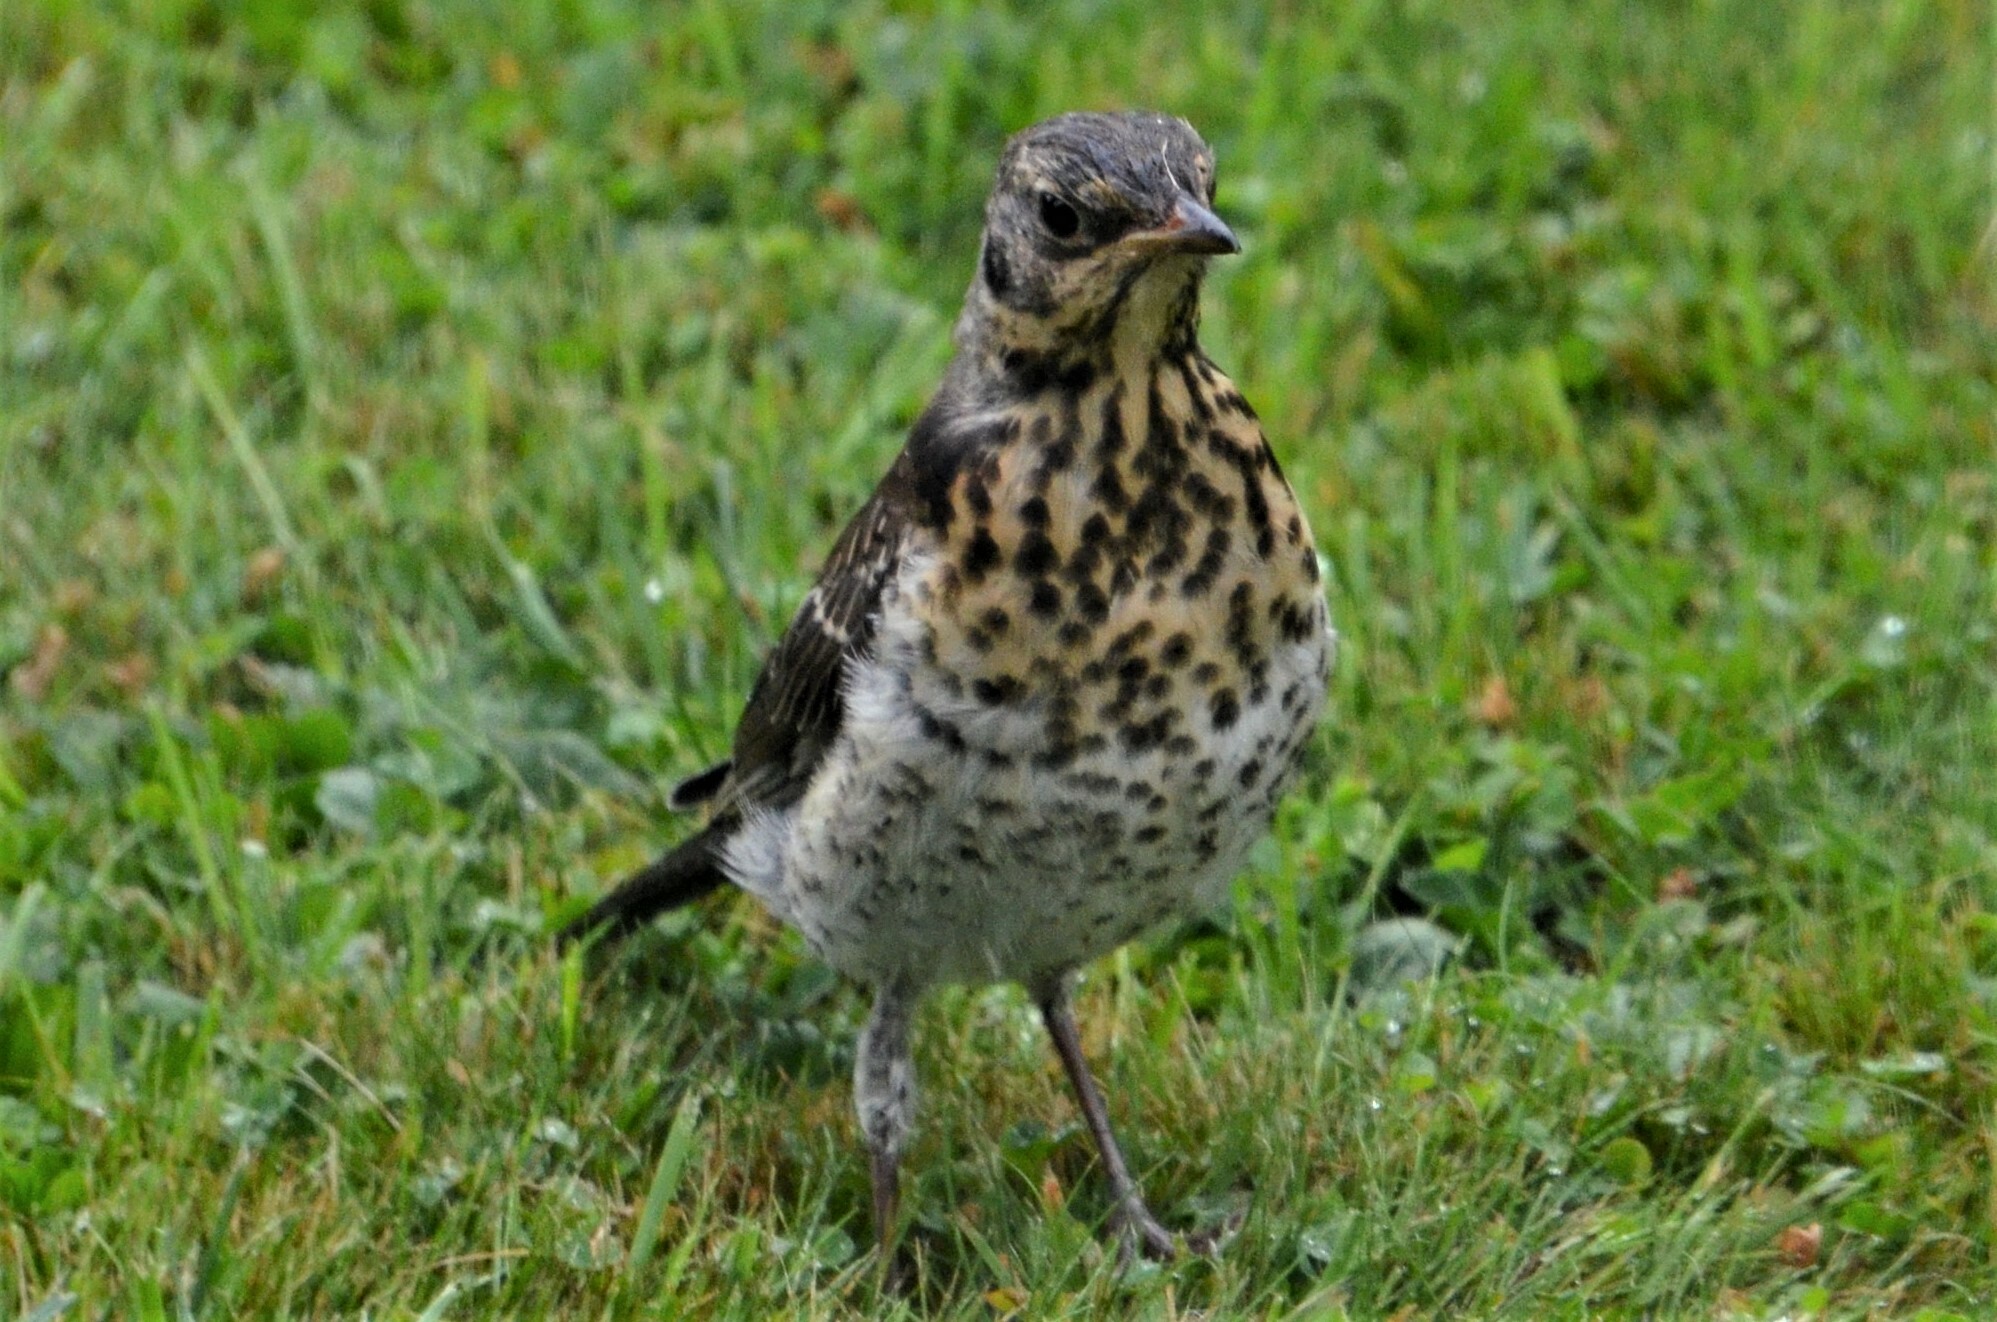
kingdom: Animalia
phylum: Chordata
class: Aves
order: Passeriformes
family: Turdidae
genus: Turdus
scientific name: Turdus pilaris
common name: Fieldfare
